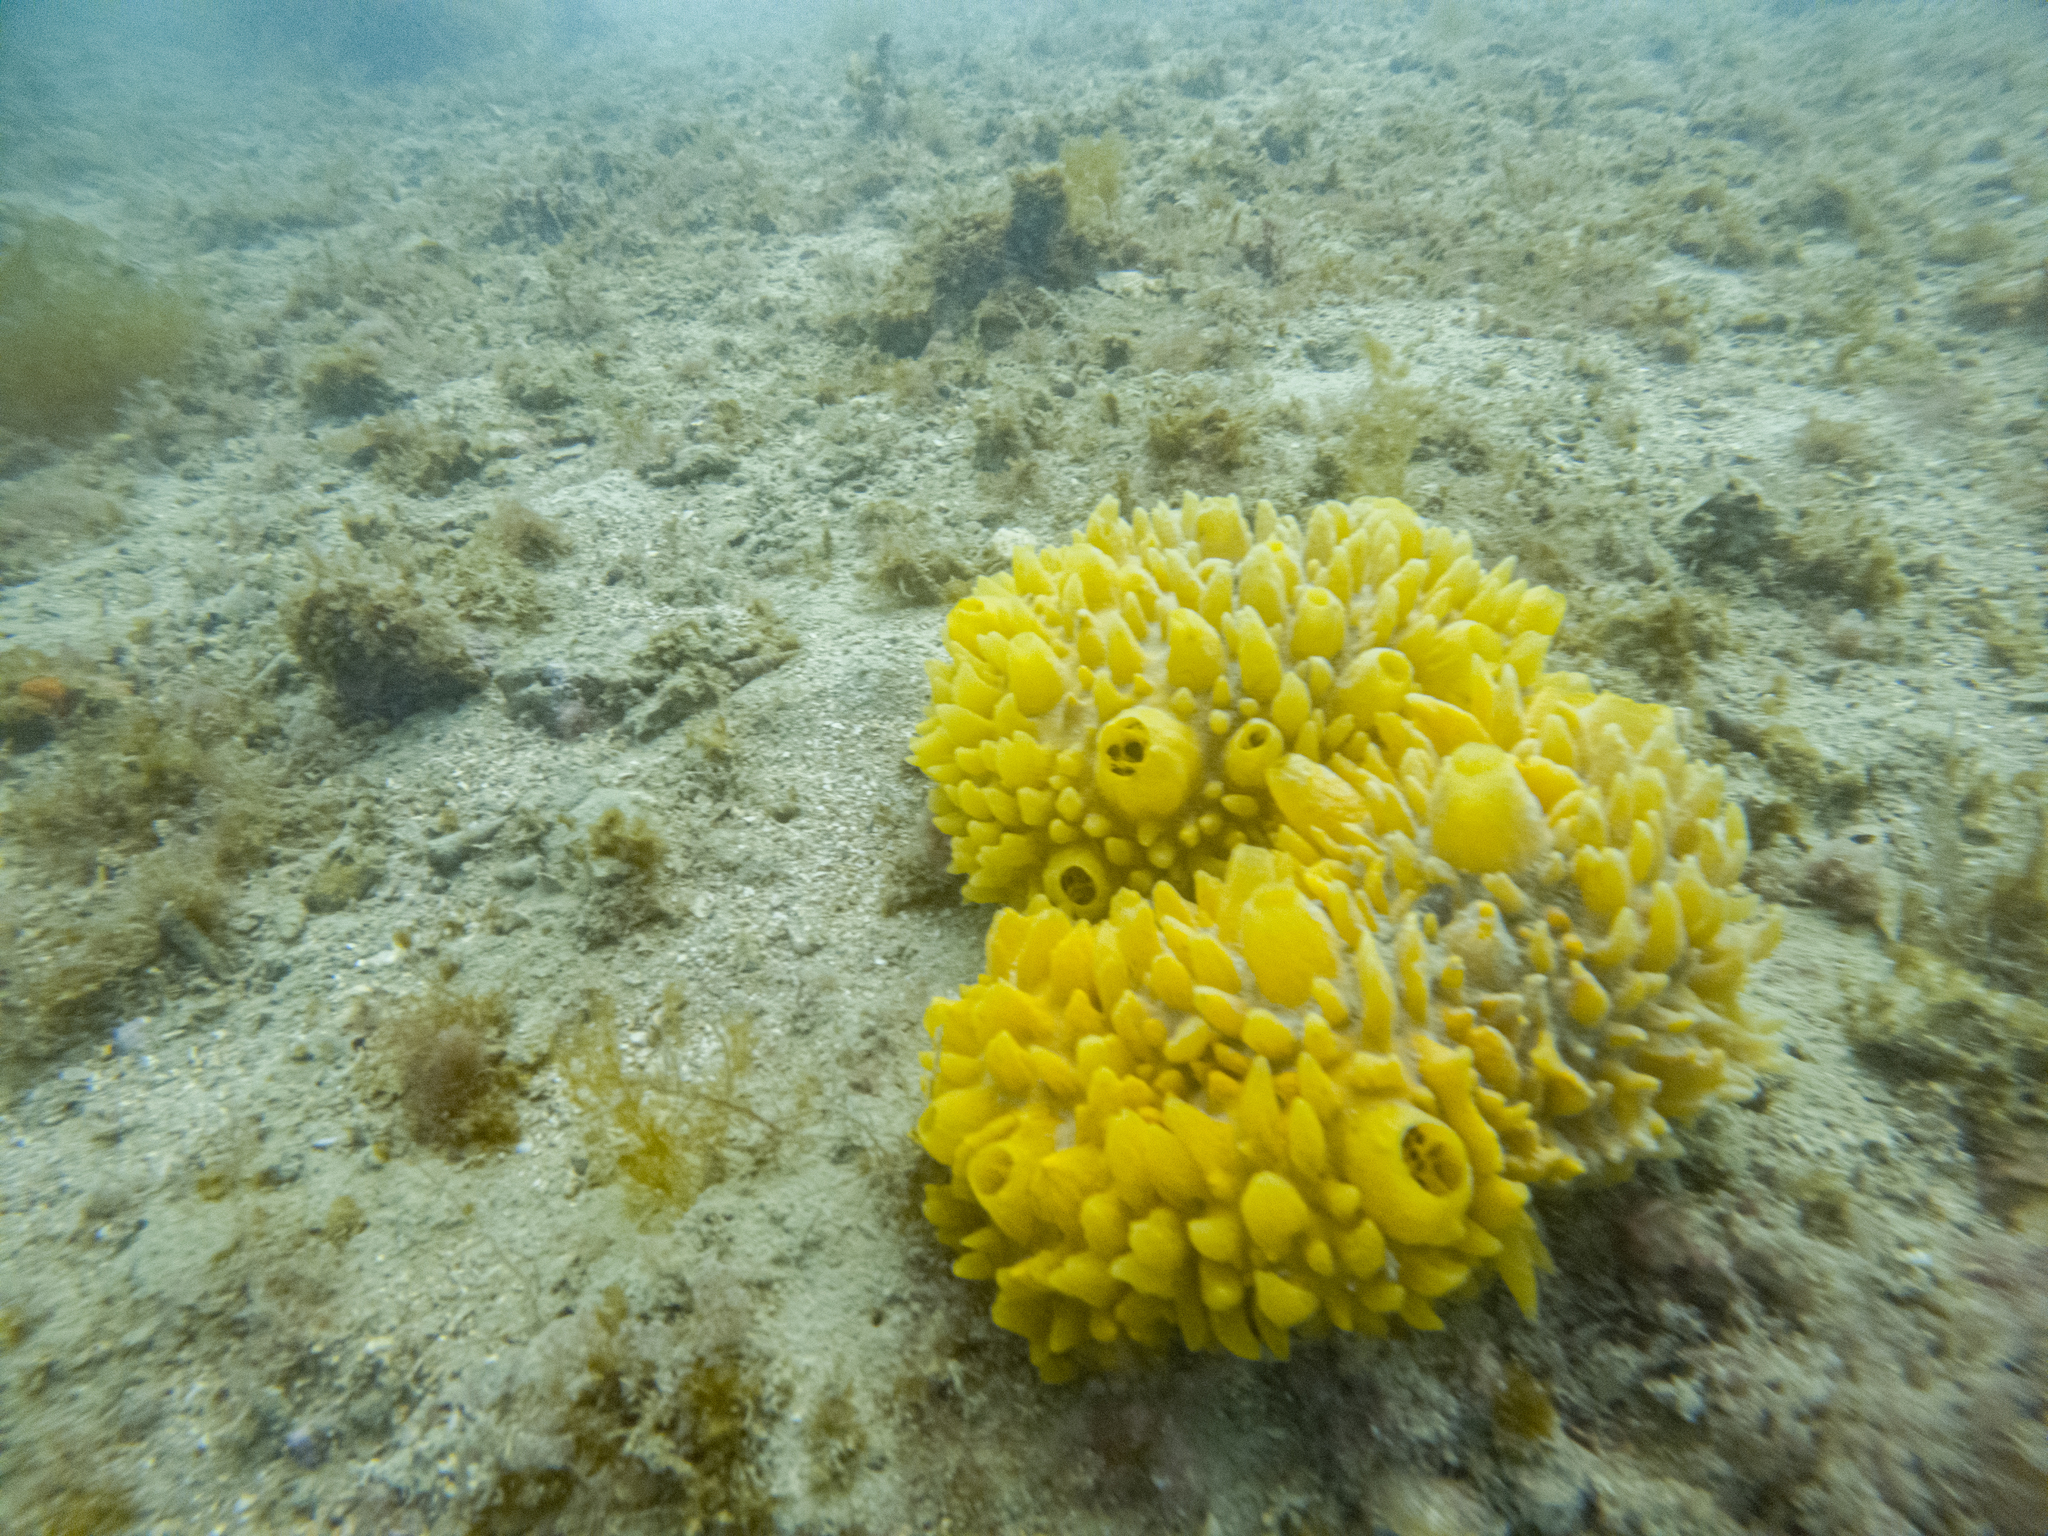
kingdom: Animalia
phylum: Porifera
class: Demospongiae
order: Polymastiida
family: Polymastiidae
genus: Polymastia
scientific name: Polymastia crocea
